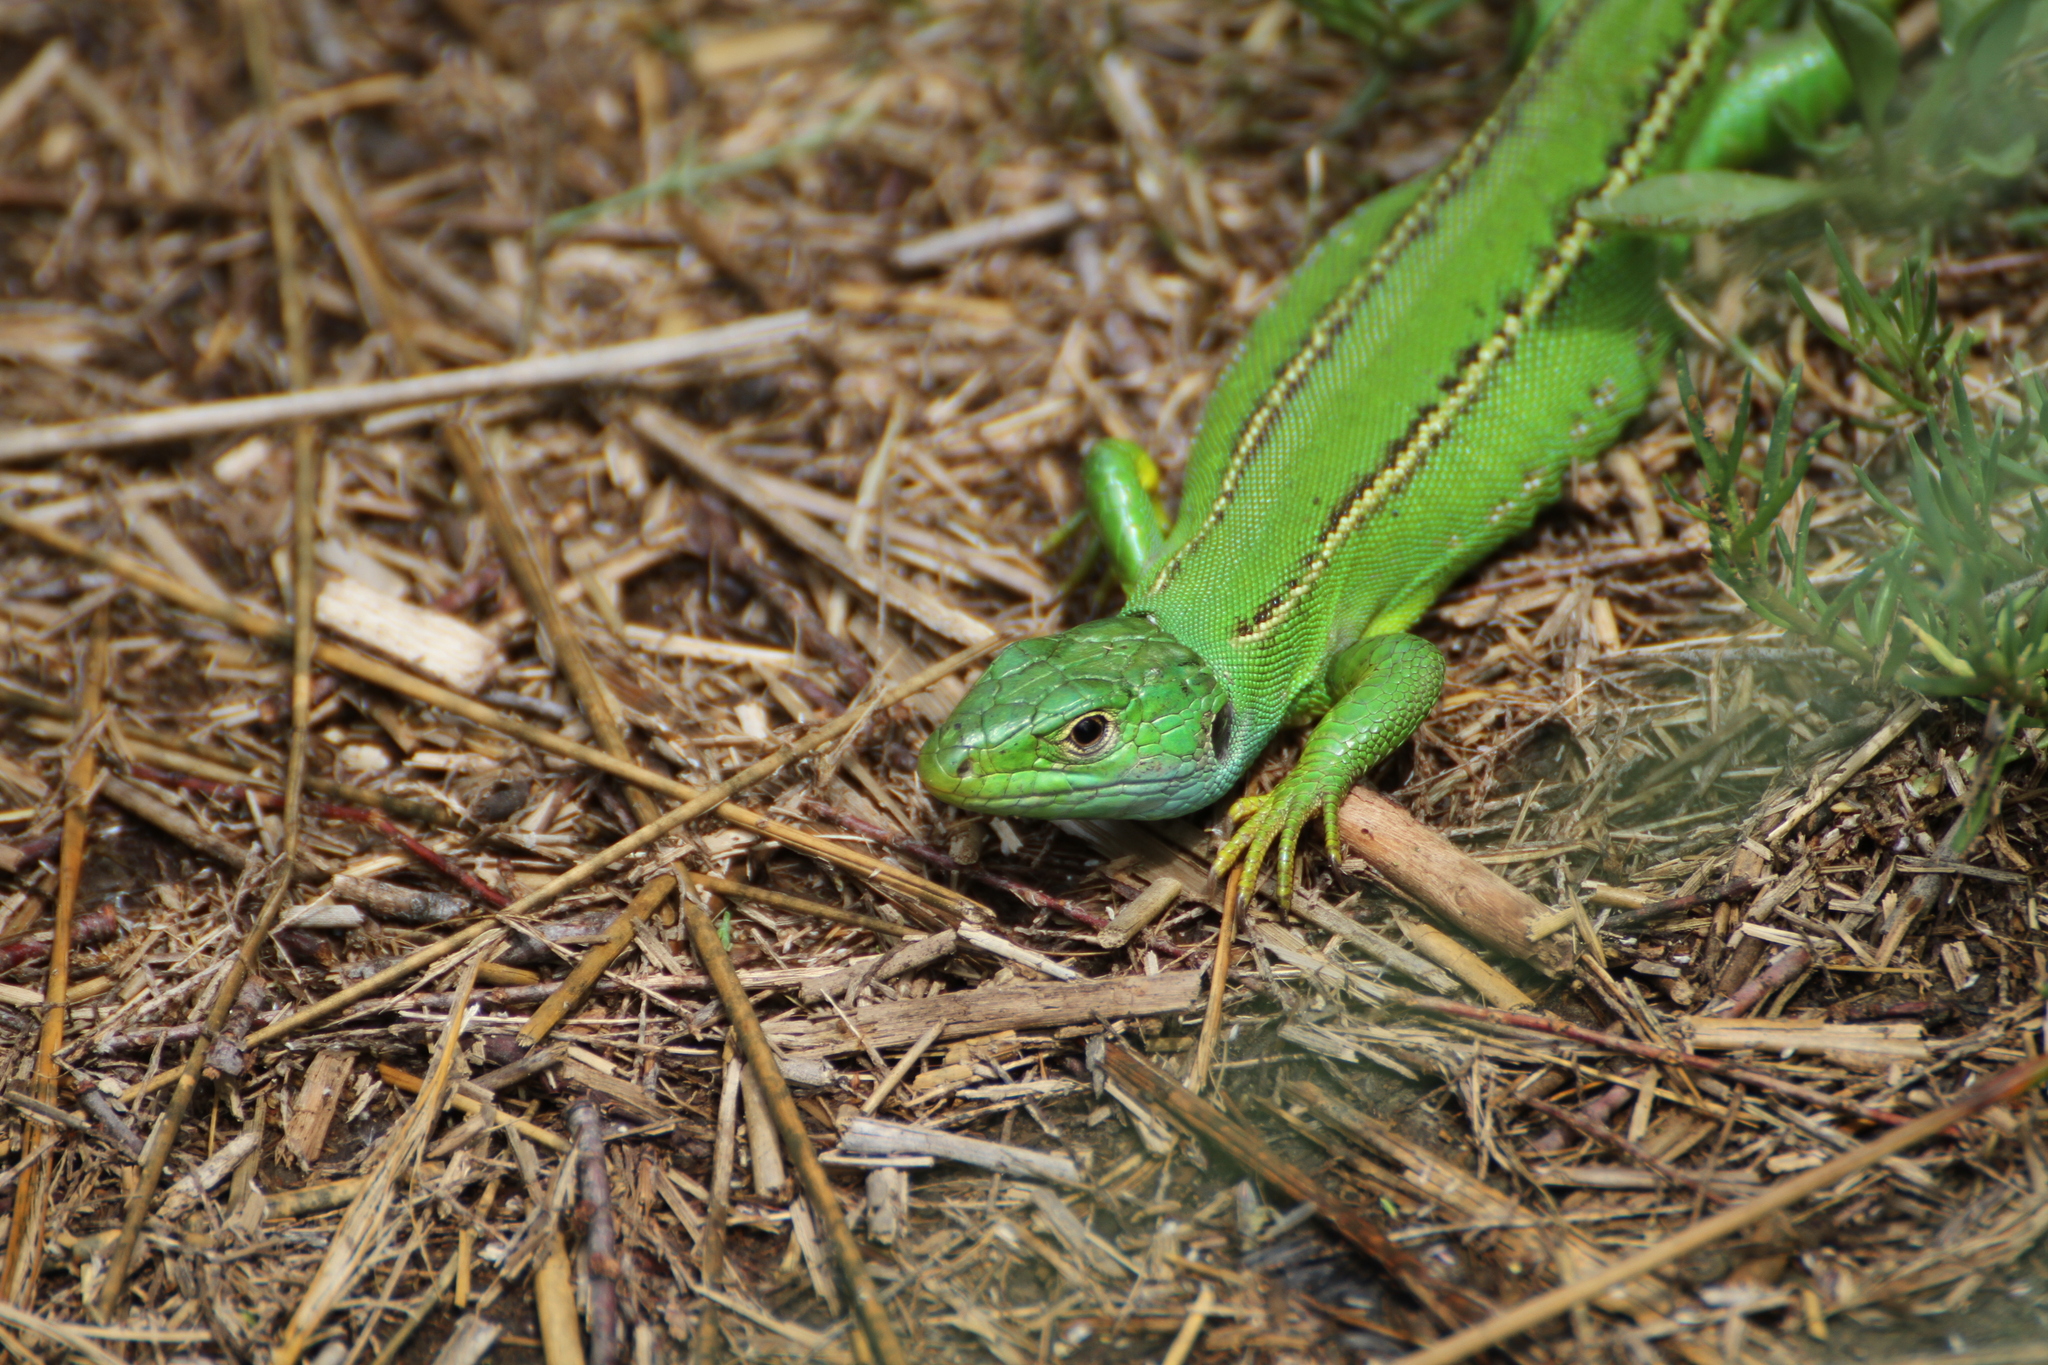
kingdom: Animalia
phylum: Chordata
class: Squamata
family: Lacertidae
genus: Lacerta
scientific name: Lacerta bilineata
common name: Western green lizard
